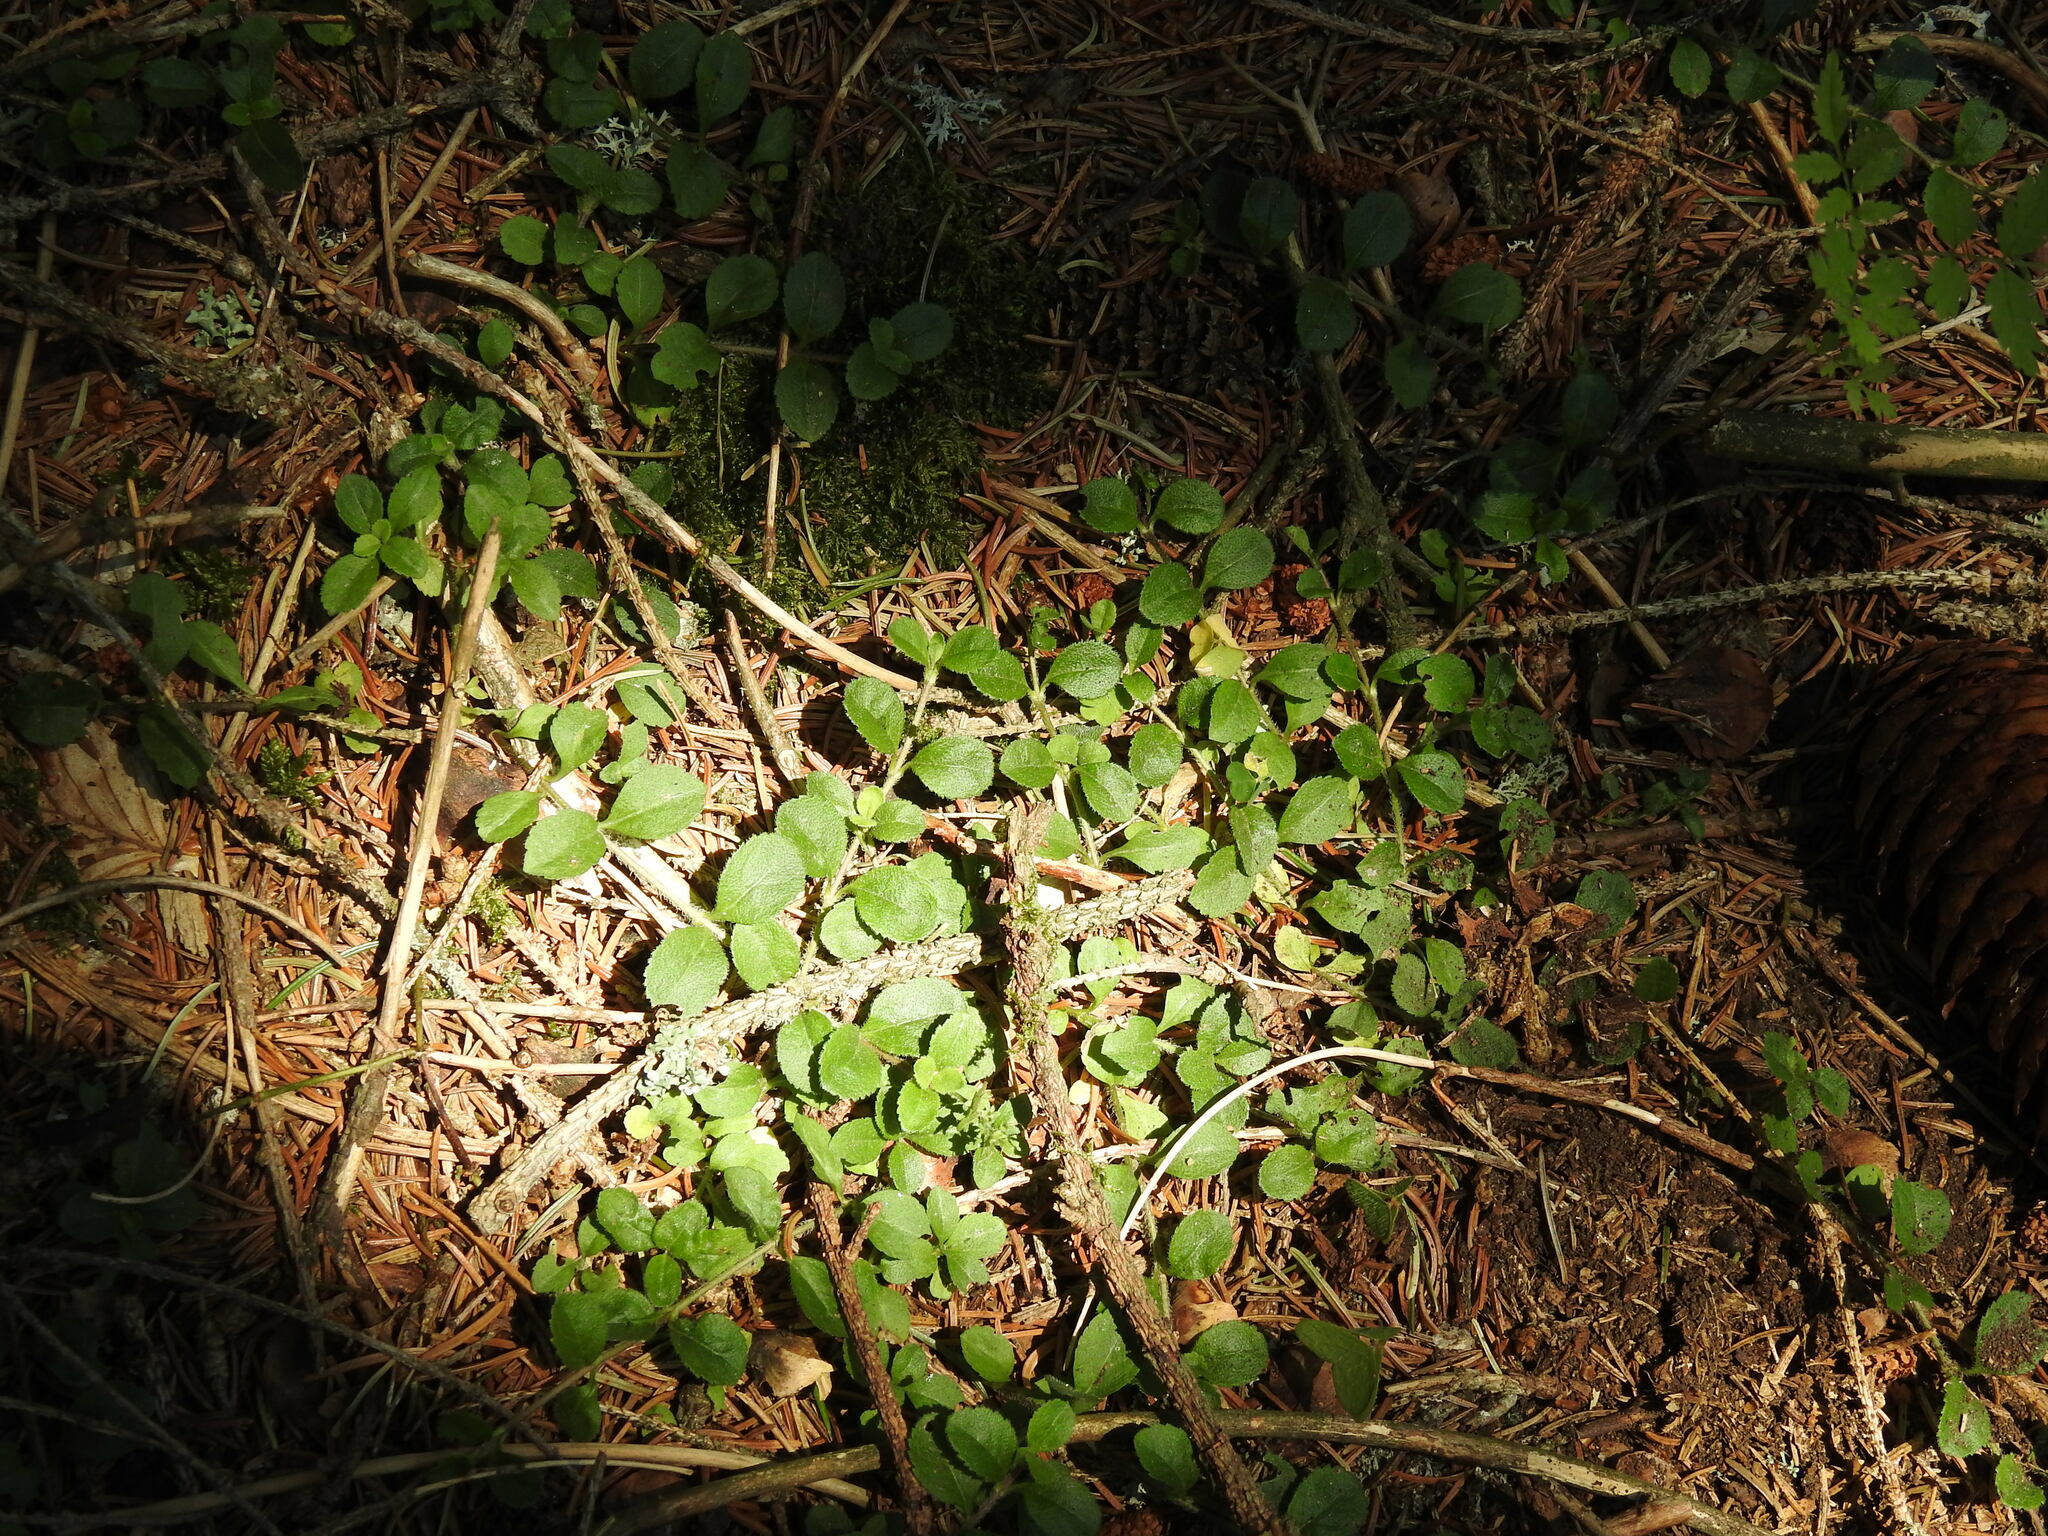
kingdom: Plantae
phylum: Tracheophyta
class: Magnoliopsida
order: Lamiales
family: Plantaginaceae
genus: Veronica
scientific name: Veronica officinalis
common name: Common speedwell
